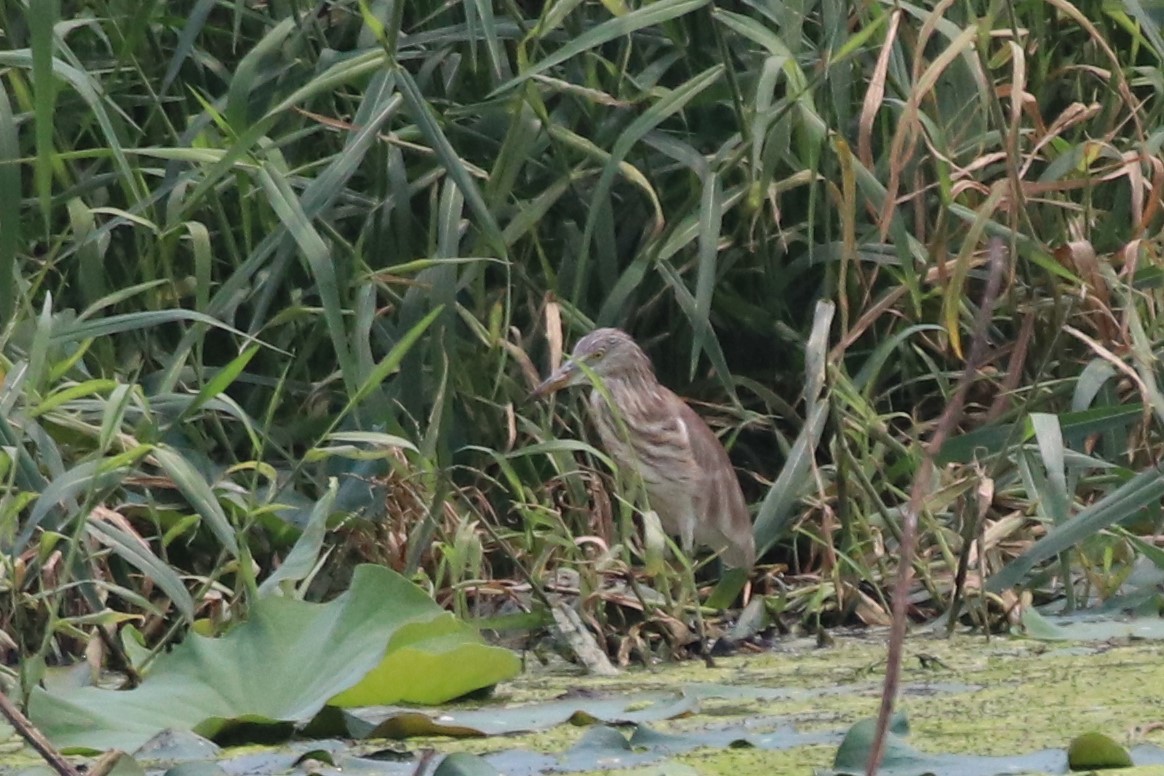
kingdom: Animalia
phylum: Chordata
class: Aves
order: Pelecaniformes
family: Ardeidae
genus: Ardeola
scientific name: Ardeola
